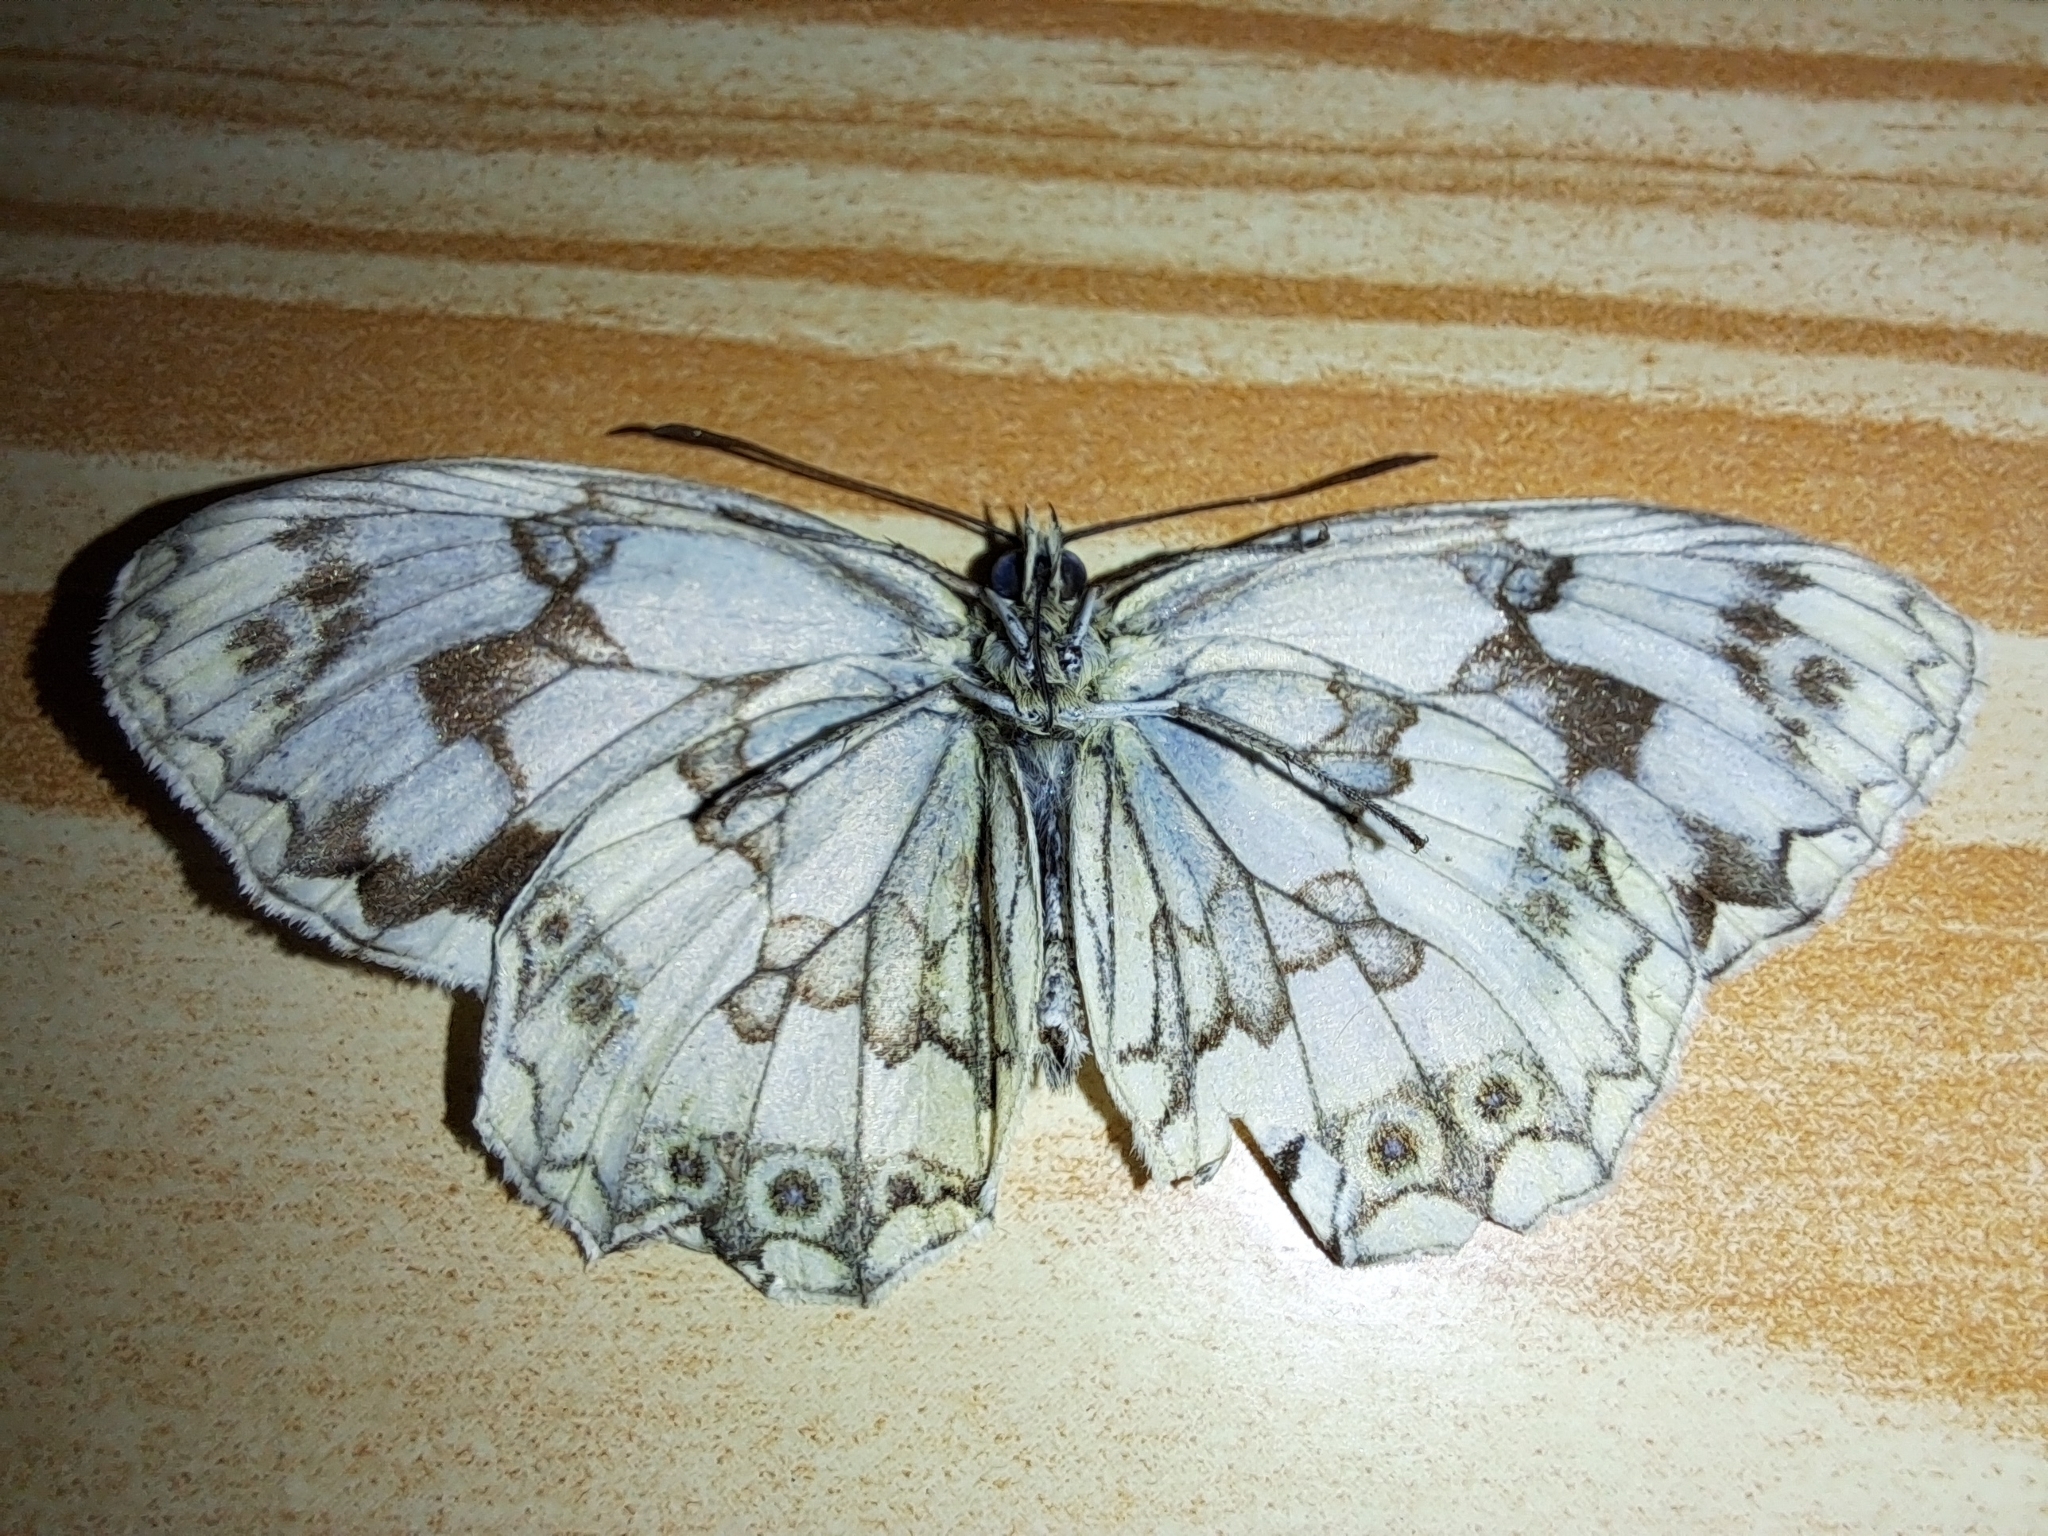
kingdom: Animalia
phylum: Arthropoda
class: Insecta
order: Lepidoptera
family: Nymphalidae
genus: Melanargia
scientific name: Melanargia lachesis
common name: Iberian marbled white
